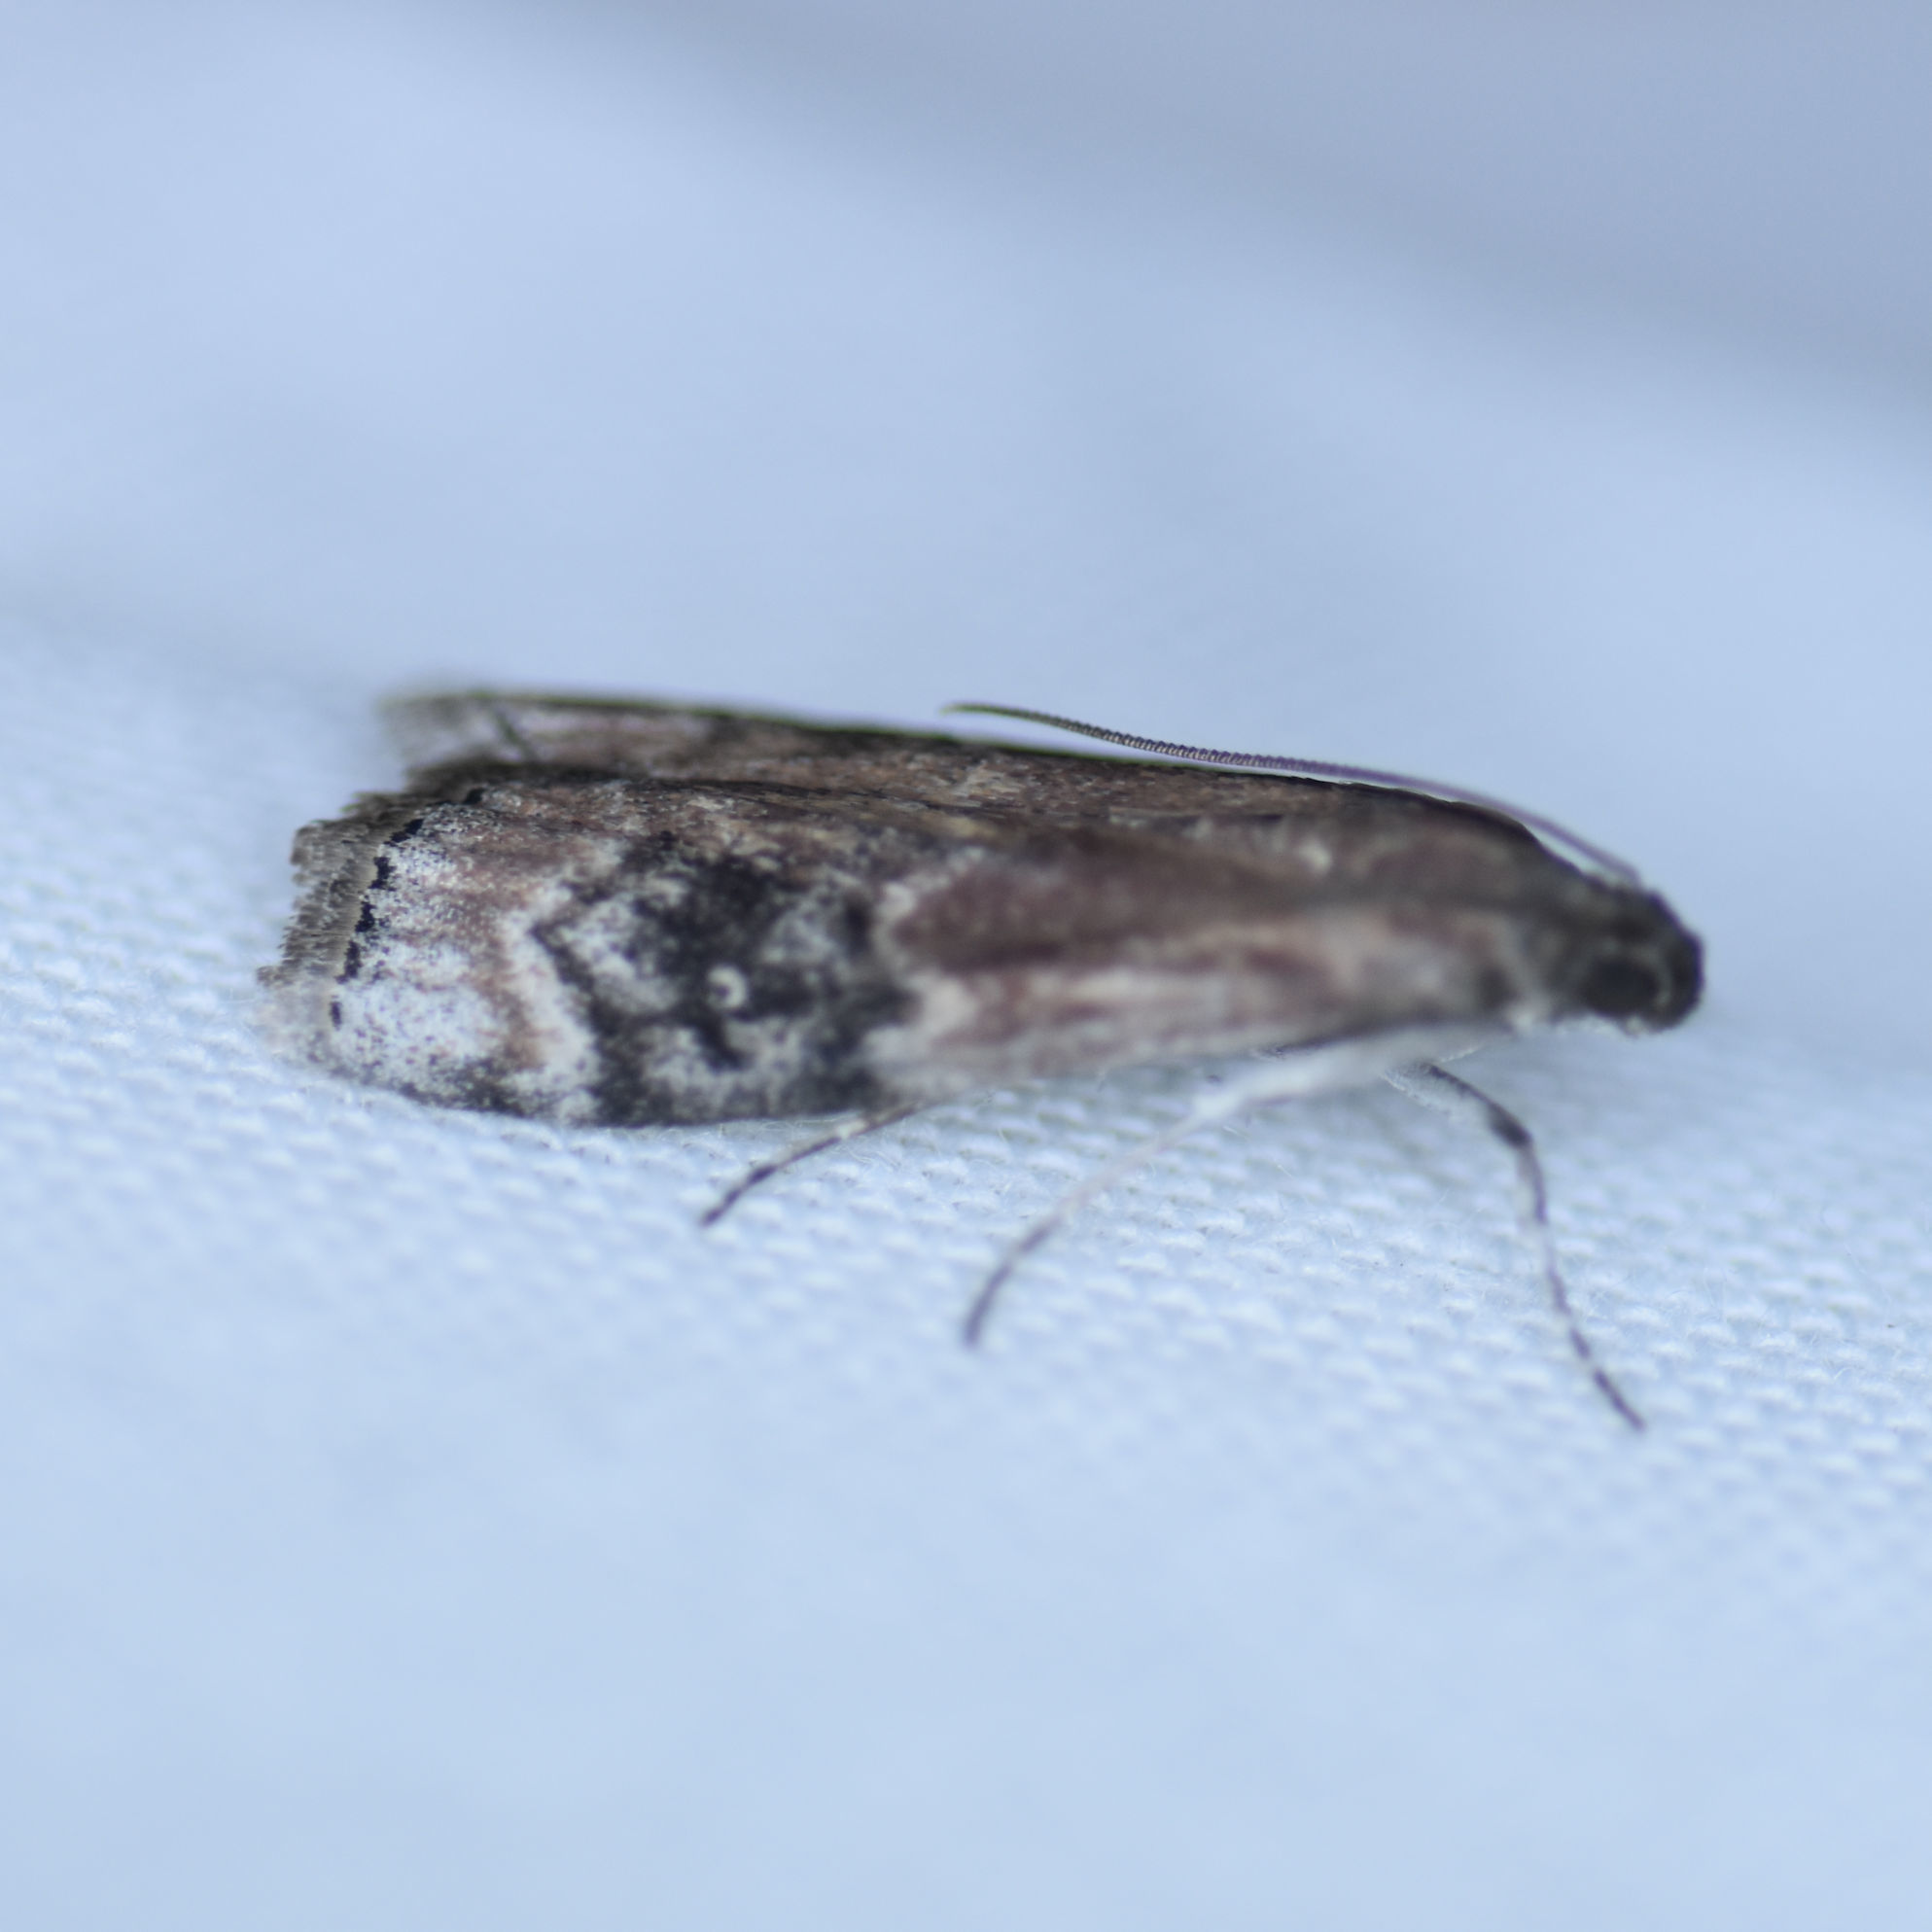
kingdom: Animalia
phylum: Arthropoda
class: Insecta
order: Lepidoptera
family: Pyralidae
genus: Euzophera
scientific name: Euzophera semifuneralis
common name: American plum borer moth
